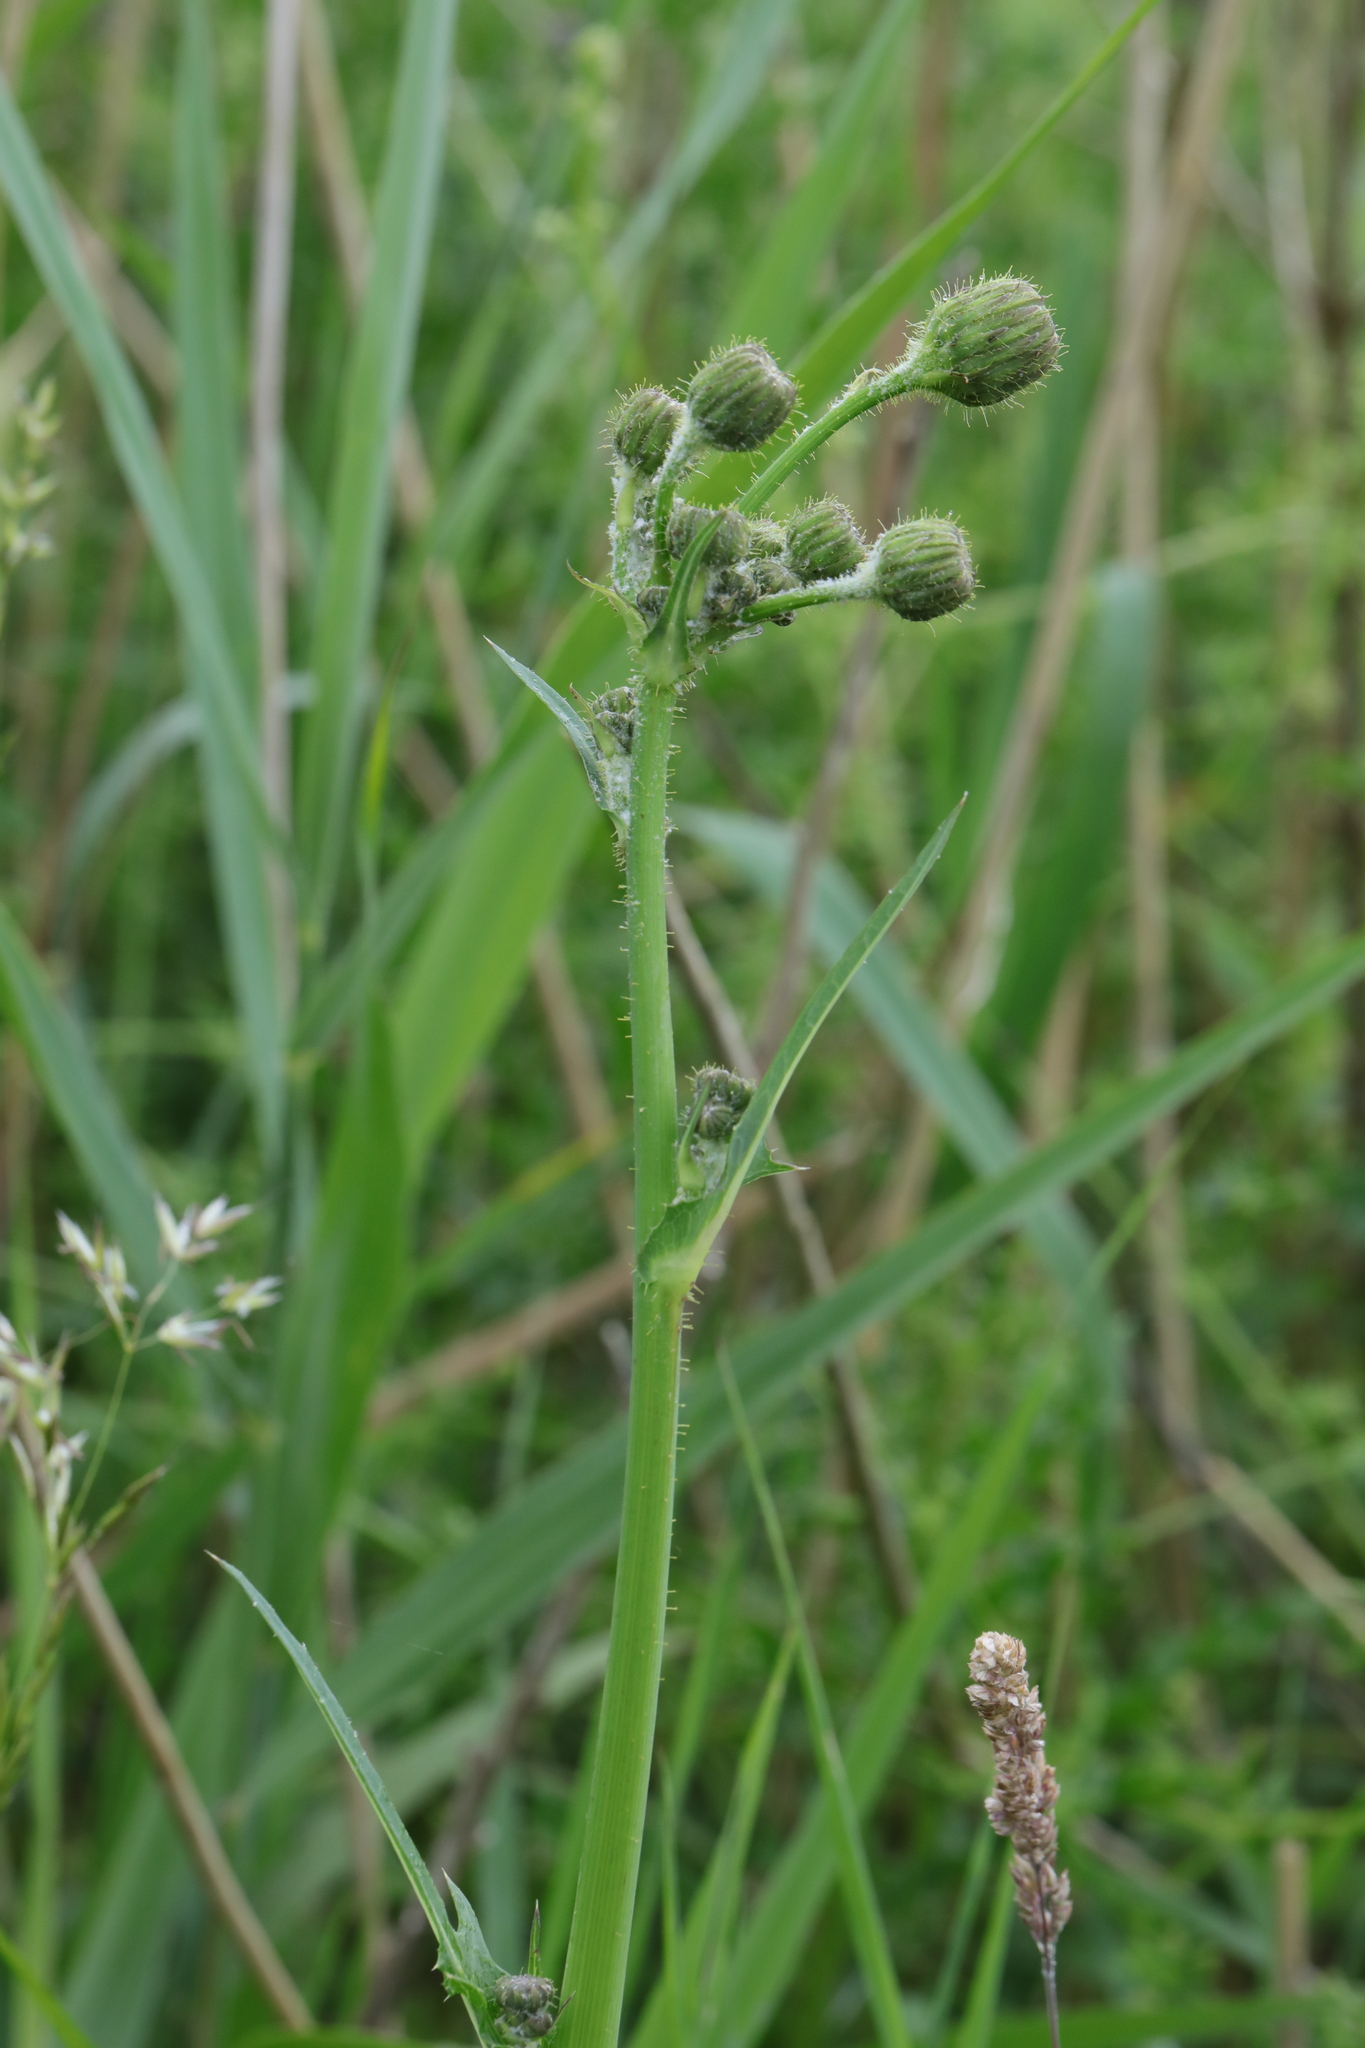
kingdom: Plantae
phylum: Tracheophyta
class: Magnoliopsida
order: Asterales
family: Asteraceae
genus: Sonchus
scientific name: Sonchus arvensis
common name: Perennial sow-thistle
